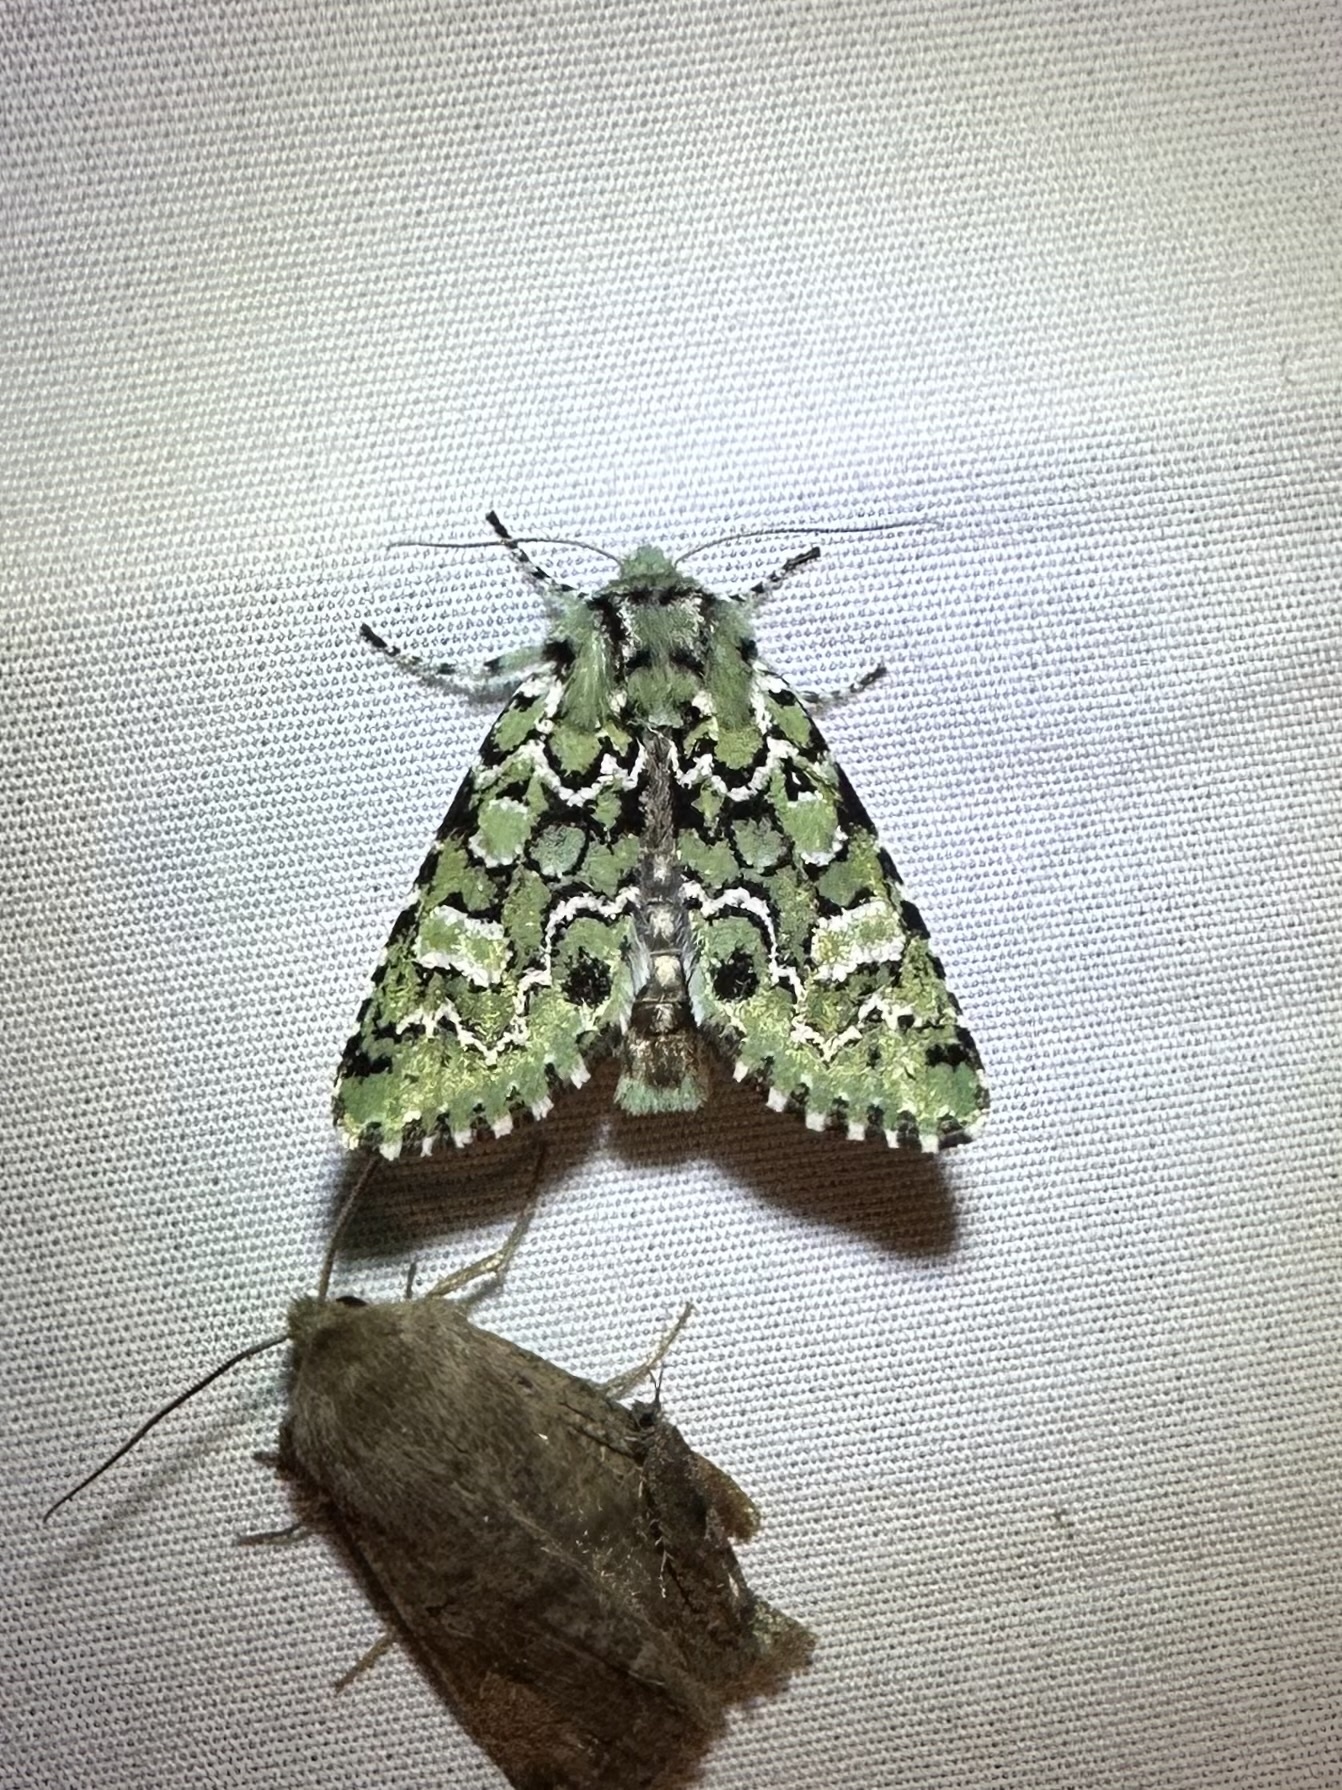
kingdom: Animalia
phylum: Arthropoda
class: Insecta
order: Lepidoptera
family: Noctuidae
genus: Feralia
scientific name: Feralia jocosa
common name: Joker
